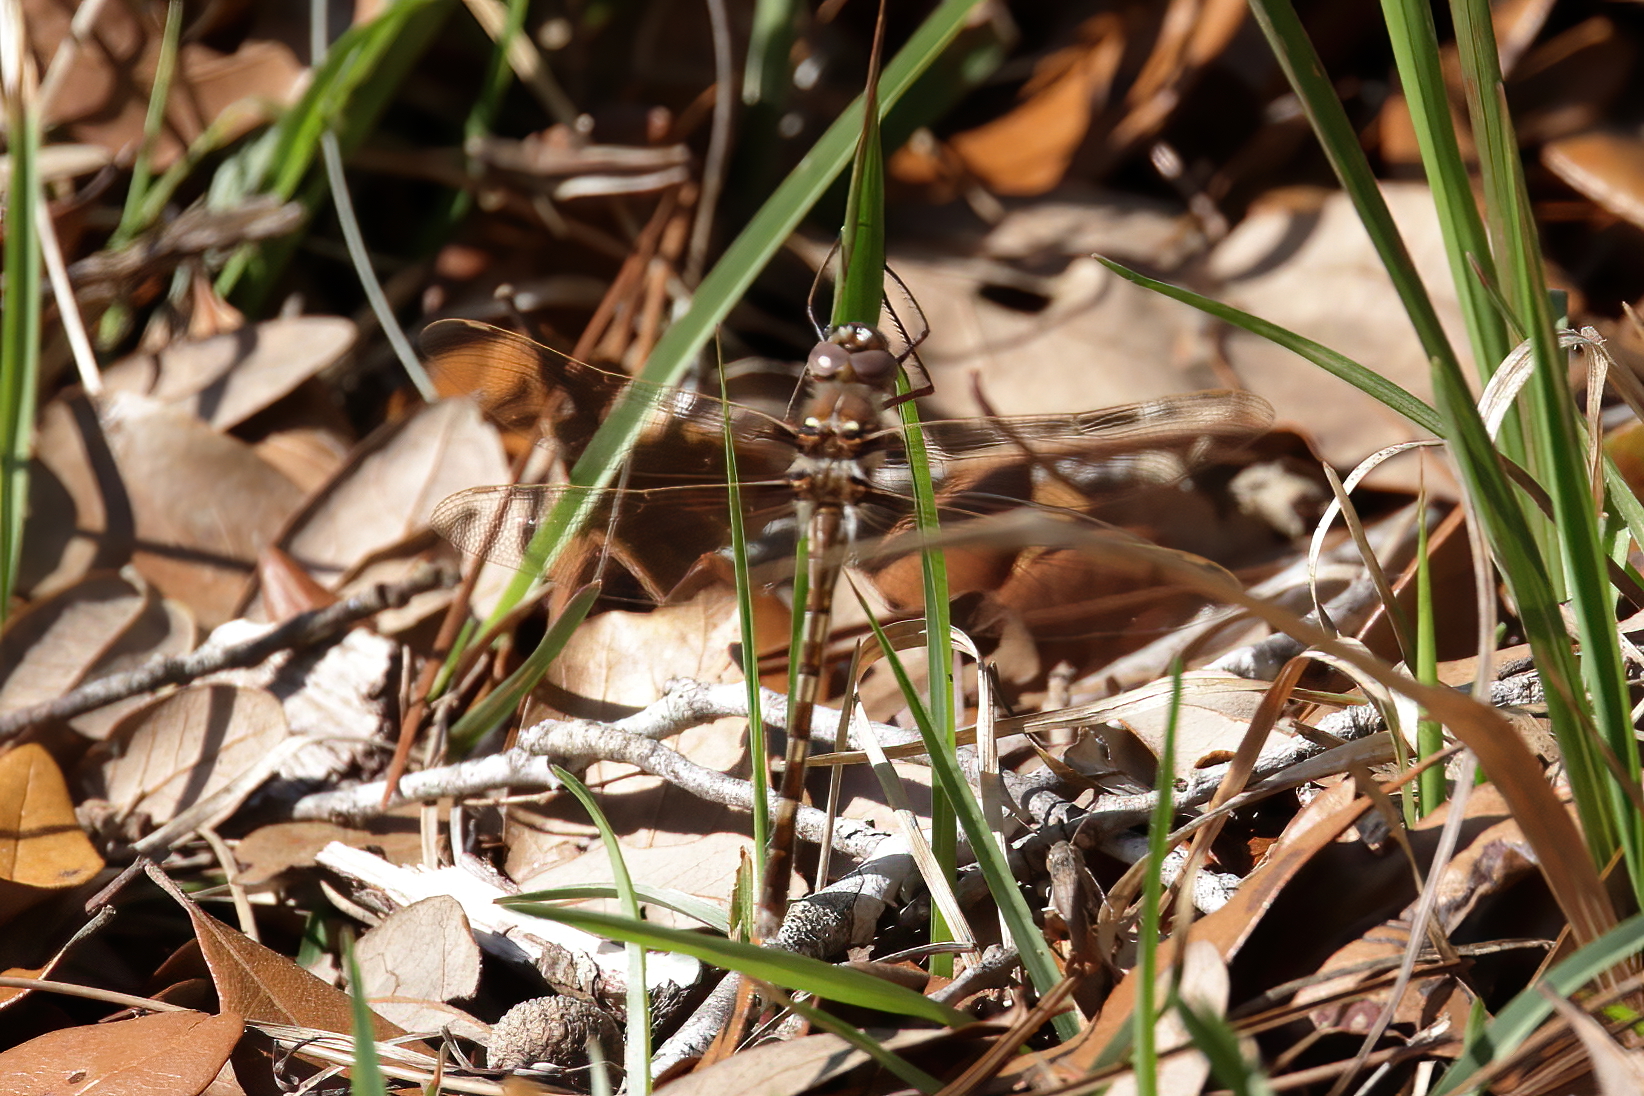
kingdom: Animalia
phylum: Arthropoda
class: Insecta
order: Odonata
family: Macromiidae
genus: Didymops
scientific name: Didymops transversa
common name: Stream cruiser
